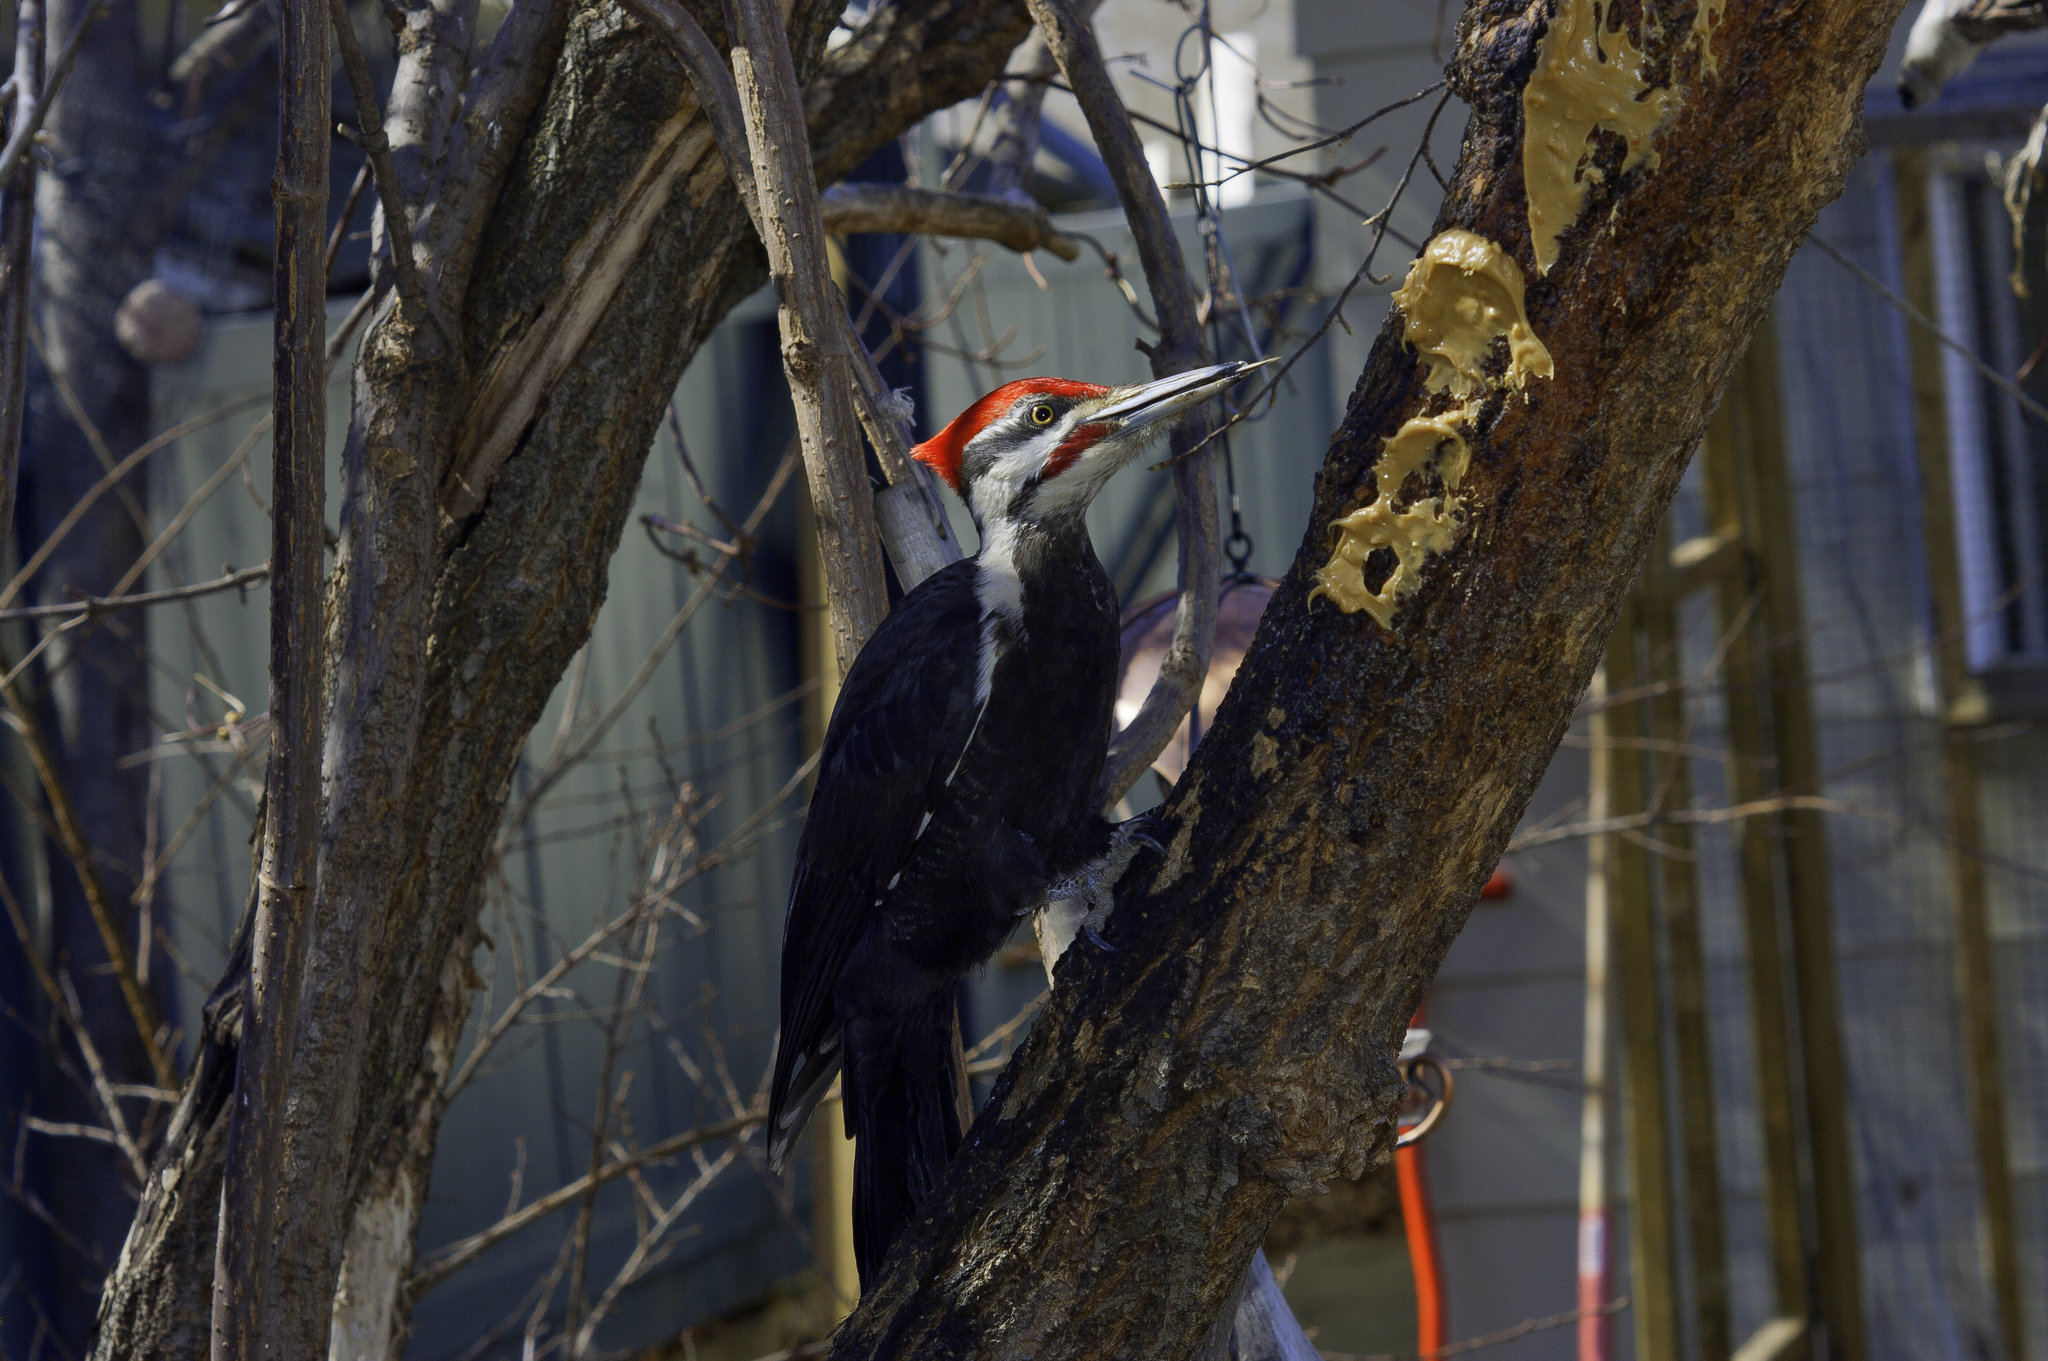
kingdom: Animalia
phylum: Chordata
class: Aves
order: Piciformes
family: Picidae
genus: Dryocopus
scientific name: Dryocopus pileatus
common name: Pileated woodpecker
